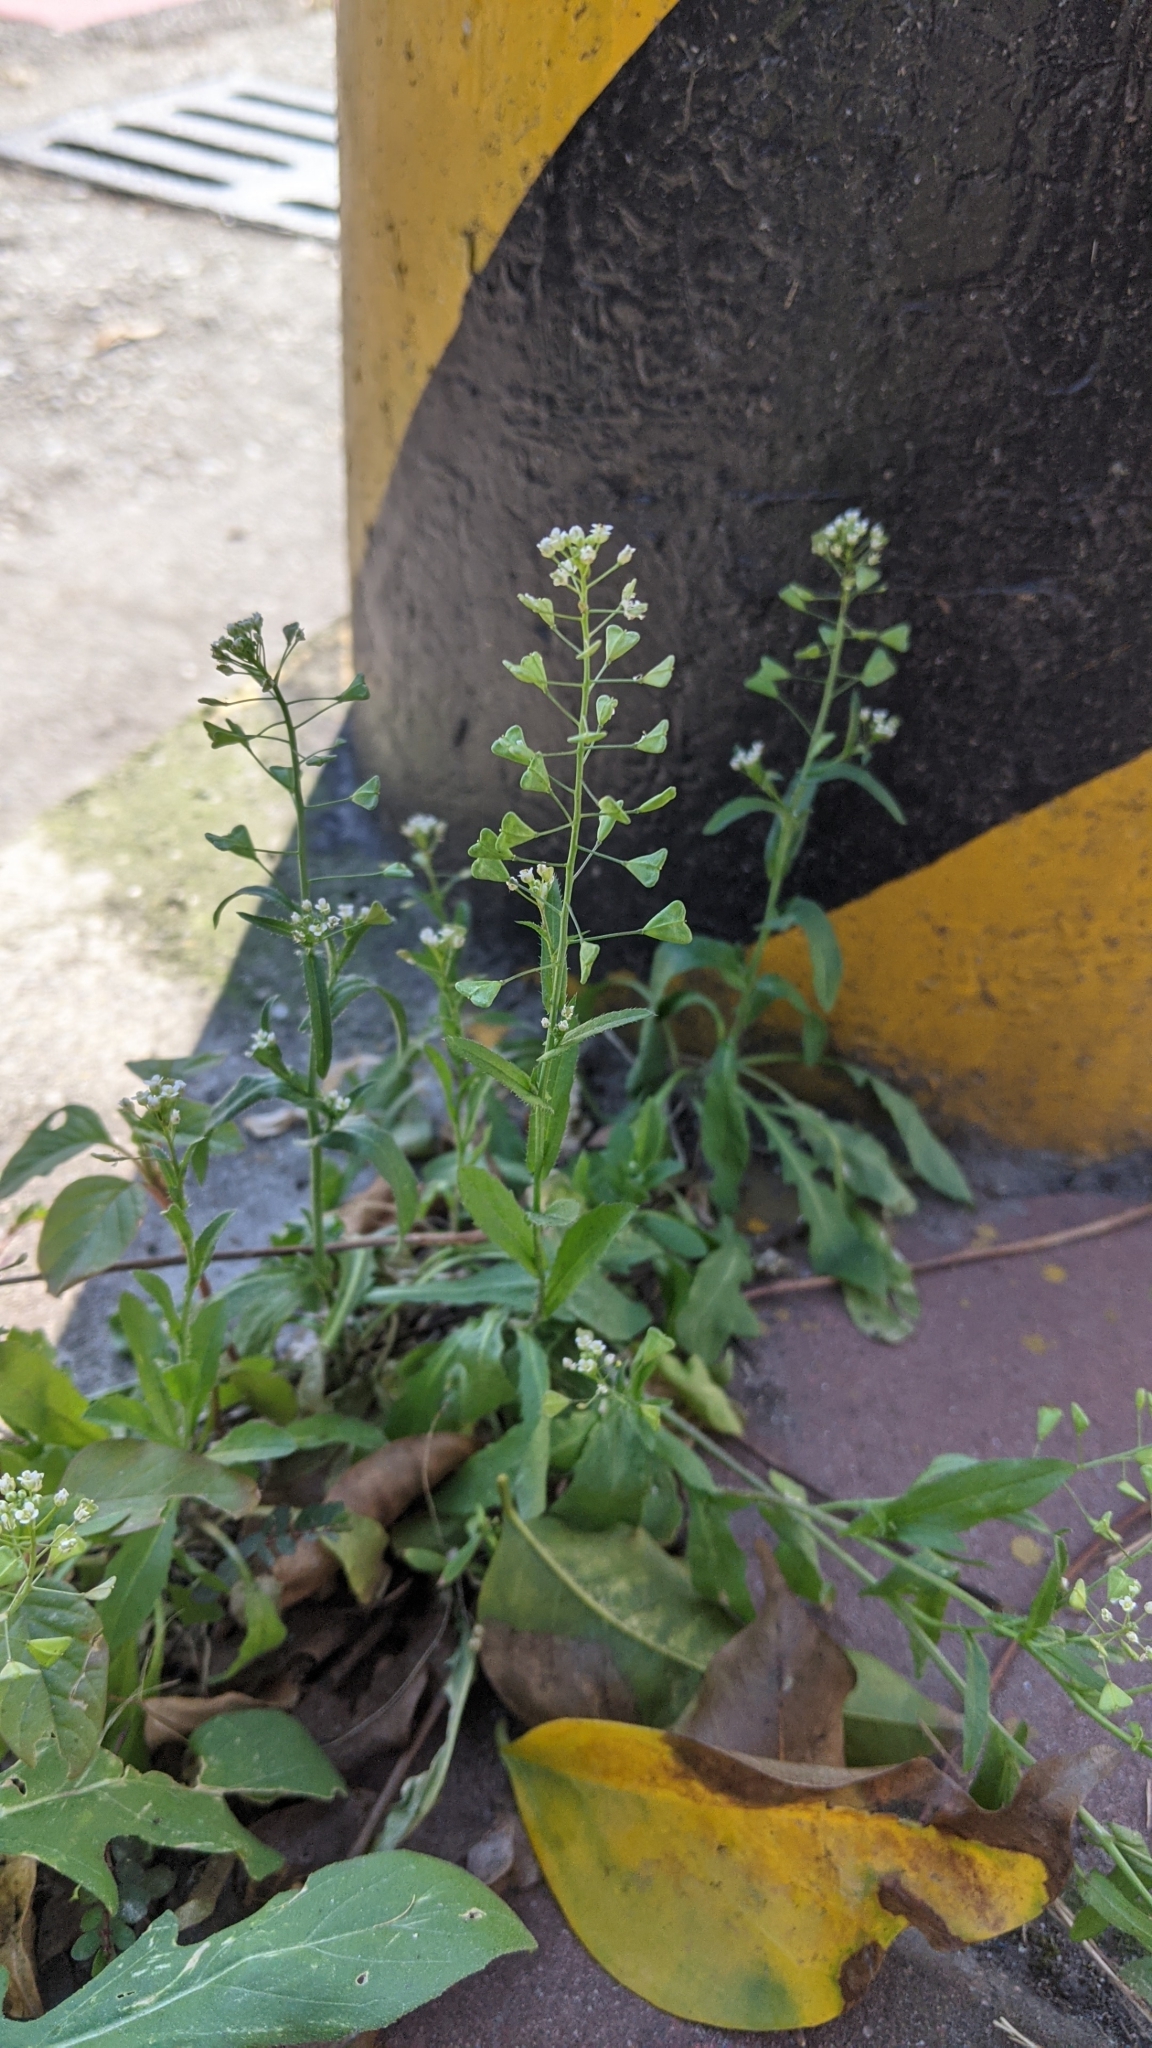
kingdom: Plantae
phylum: Tracheophyta
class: Magnoliopsida
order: Brassicales
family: Brassicaceae
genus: Capsella
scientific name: Capsella bursa-pastoris
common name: Shepherd's purse
